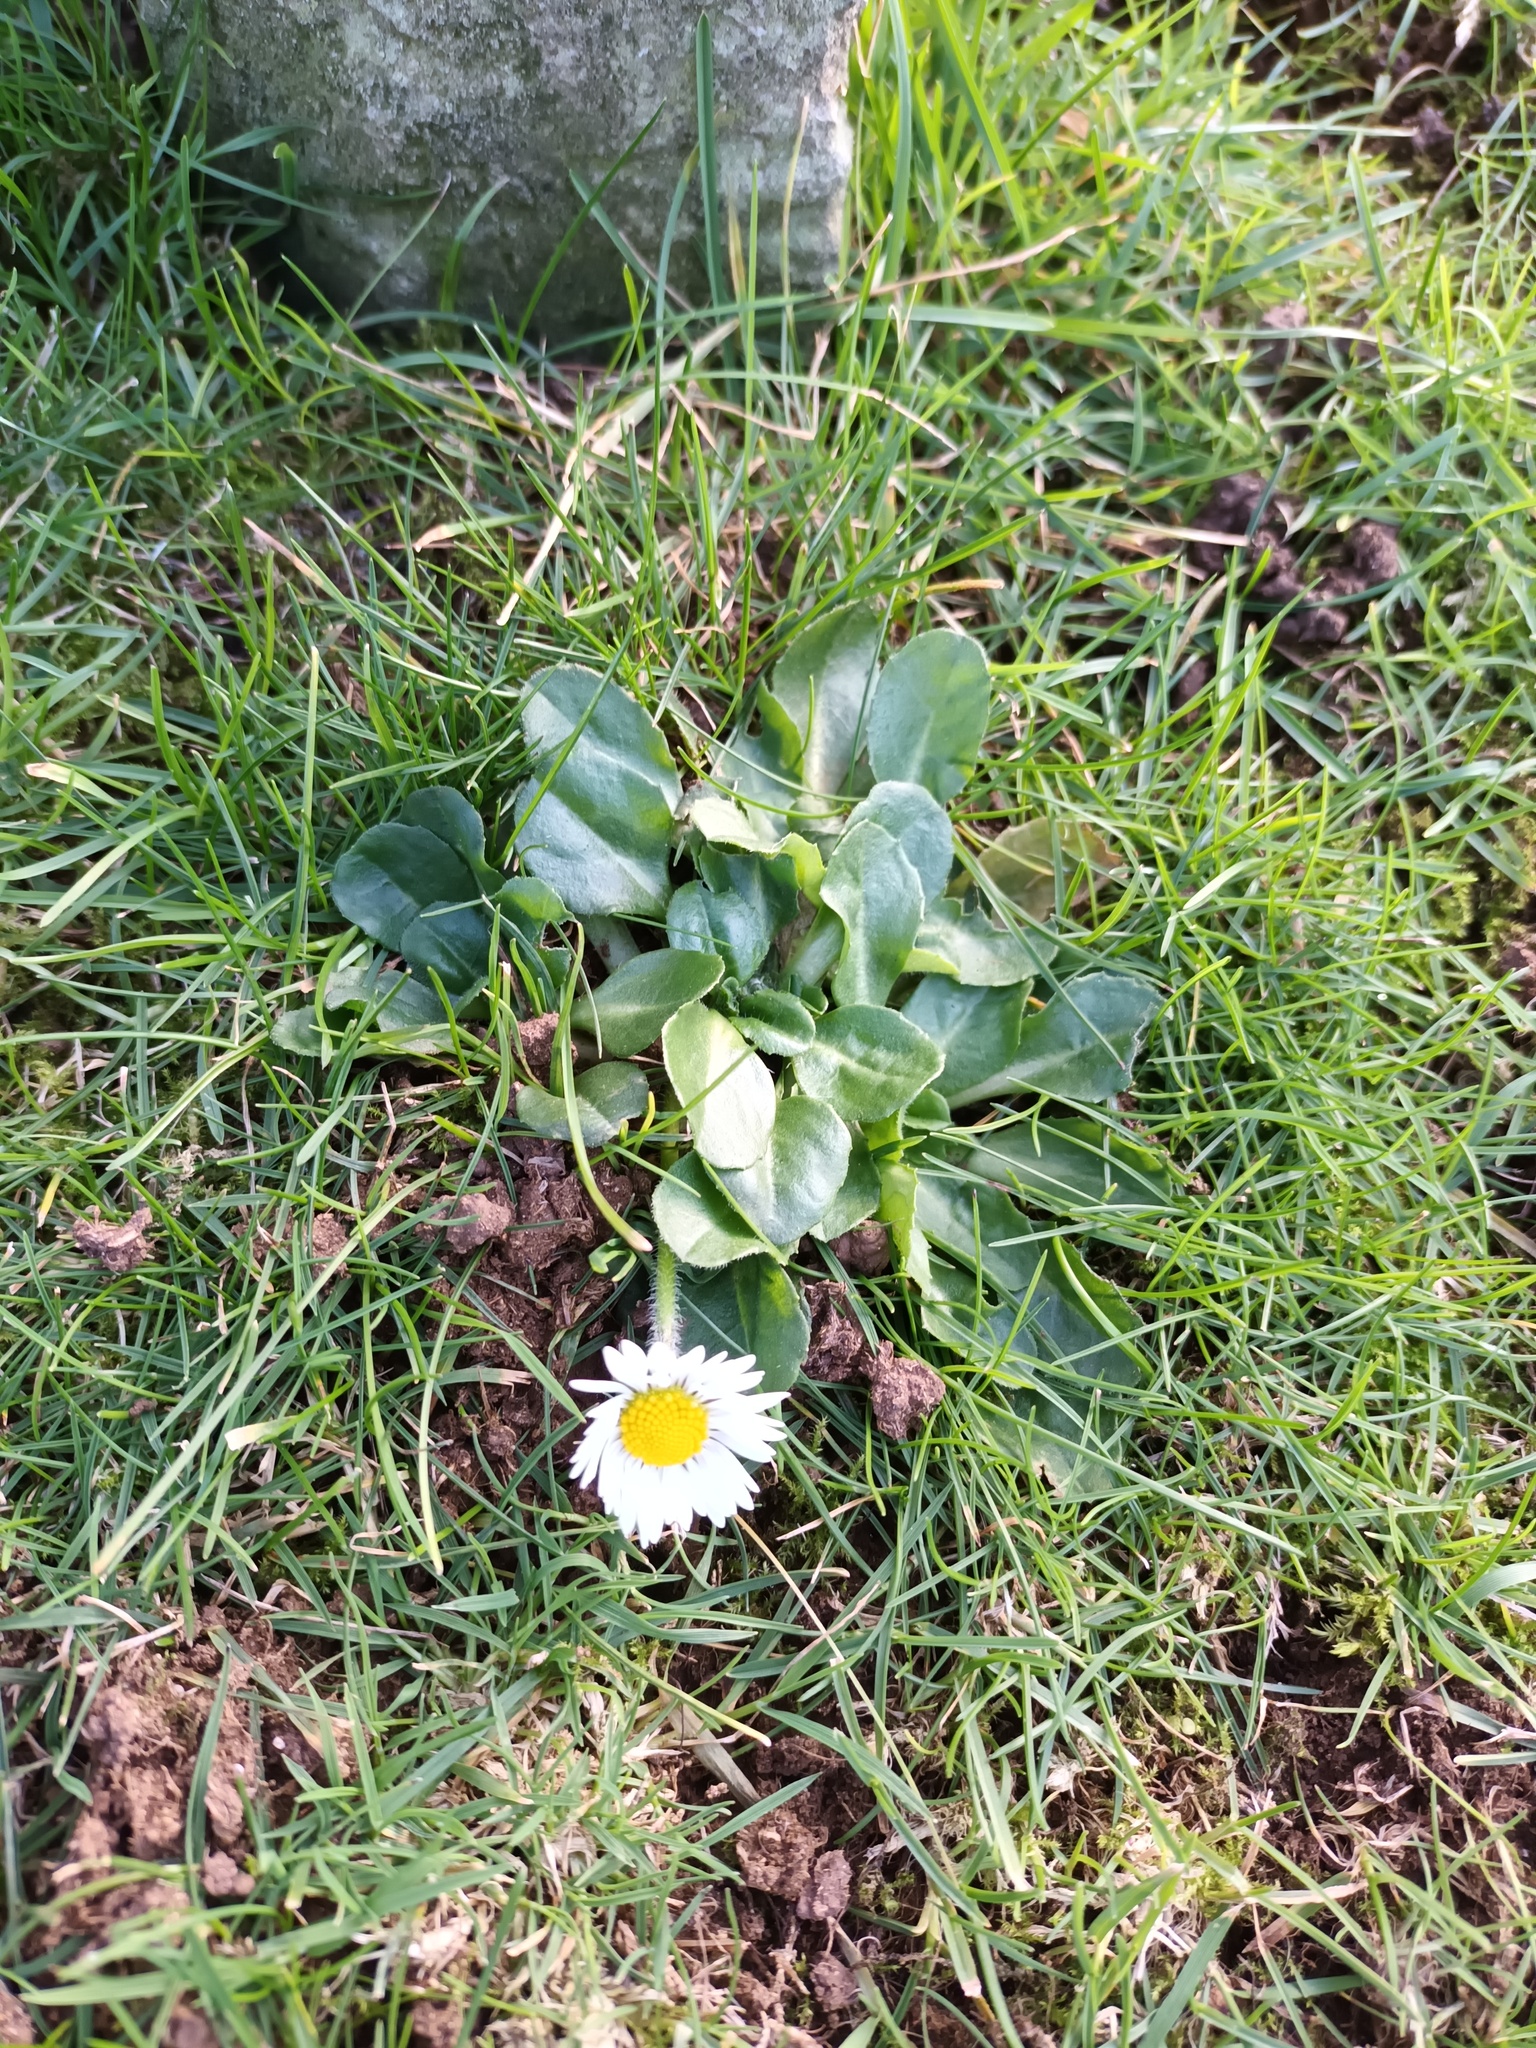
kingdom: Plantae
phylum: Tracheophyta
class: Magnoliopsida
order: Asterales
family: Asteraceae
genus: Bellis
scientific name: Bellis perennis
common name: Lawndaisy
